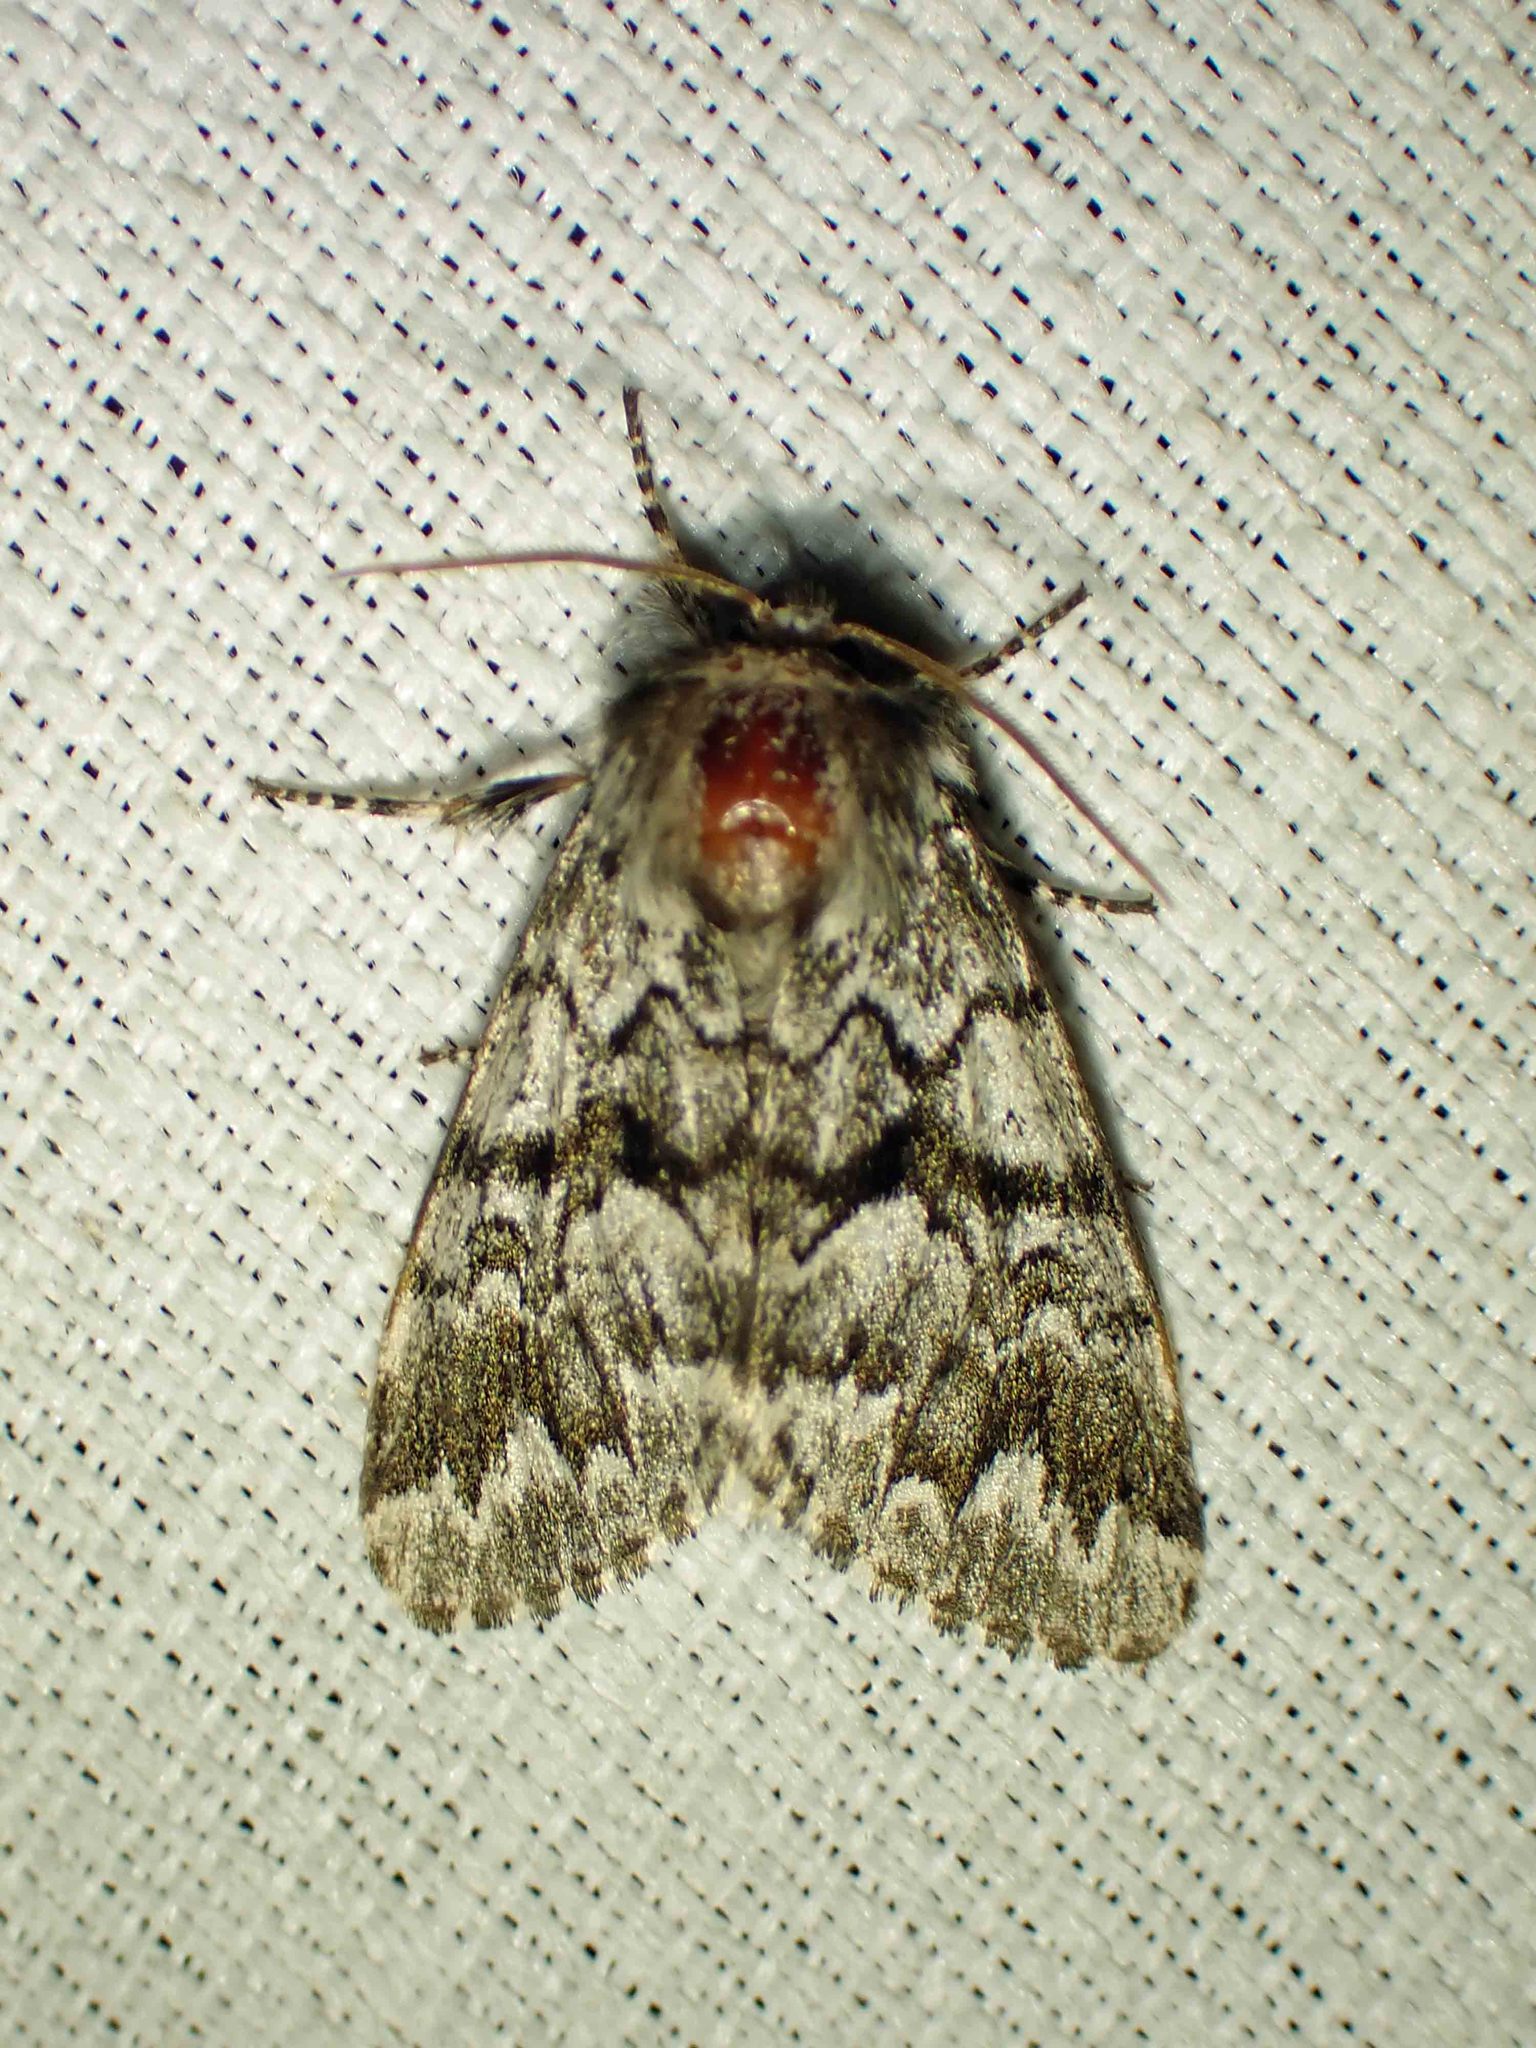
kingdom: Animalia
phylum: Arthropoda
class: Insecta
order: Lepidoptera
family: Noctuidae
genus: Panthea
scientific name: Panthea acronyctoides
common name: Black zigzag moth
